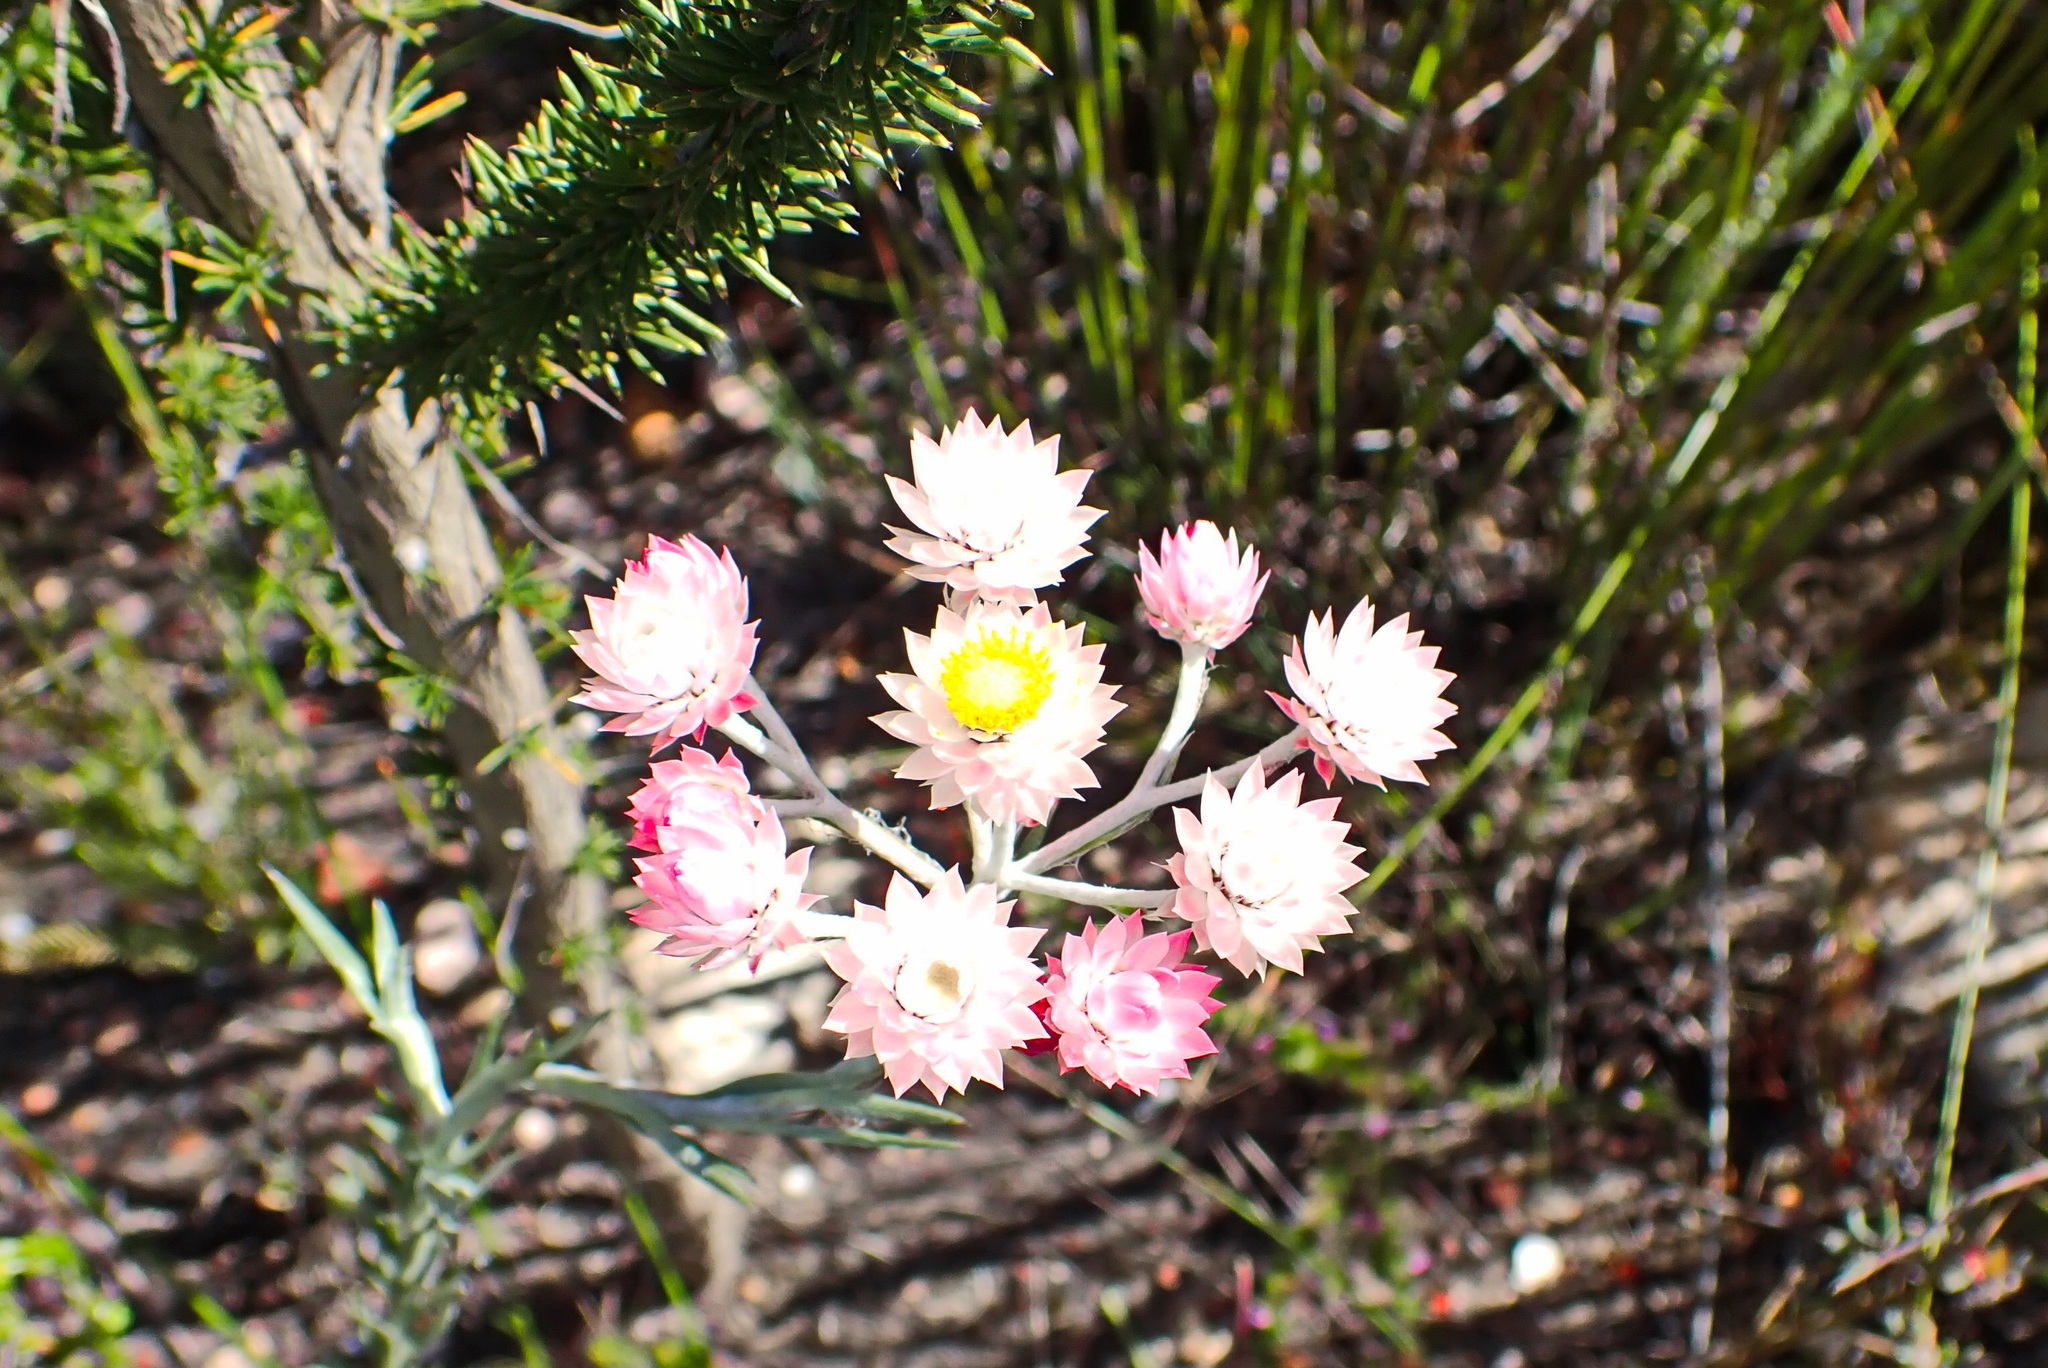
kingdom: Plantae
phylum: Tracheophyta
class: Magnoliopsida
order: Asterales
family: Asteraceae
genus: Achyranthemum
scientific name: Achyranthemum paniculatum
